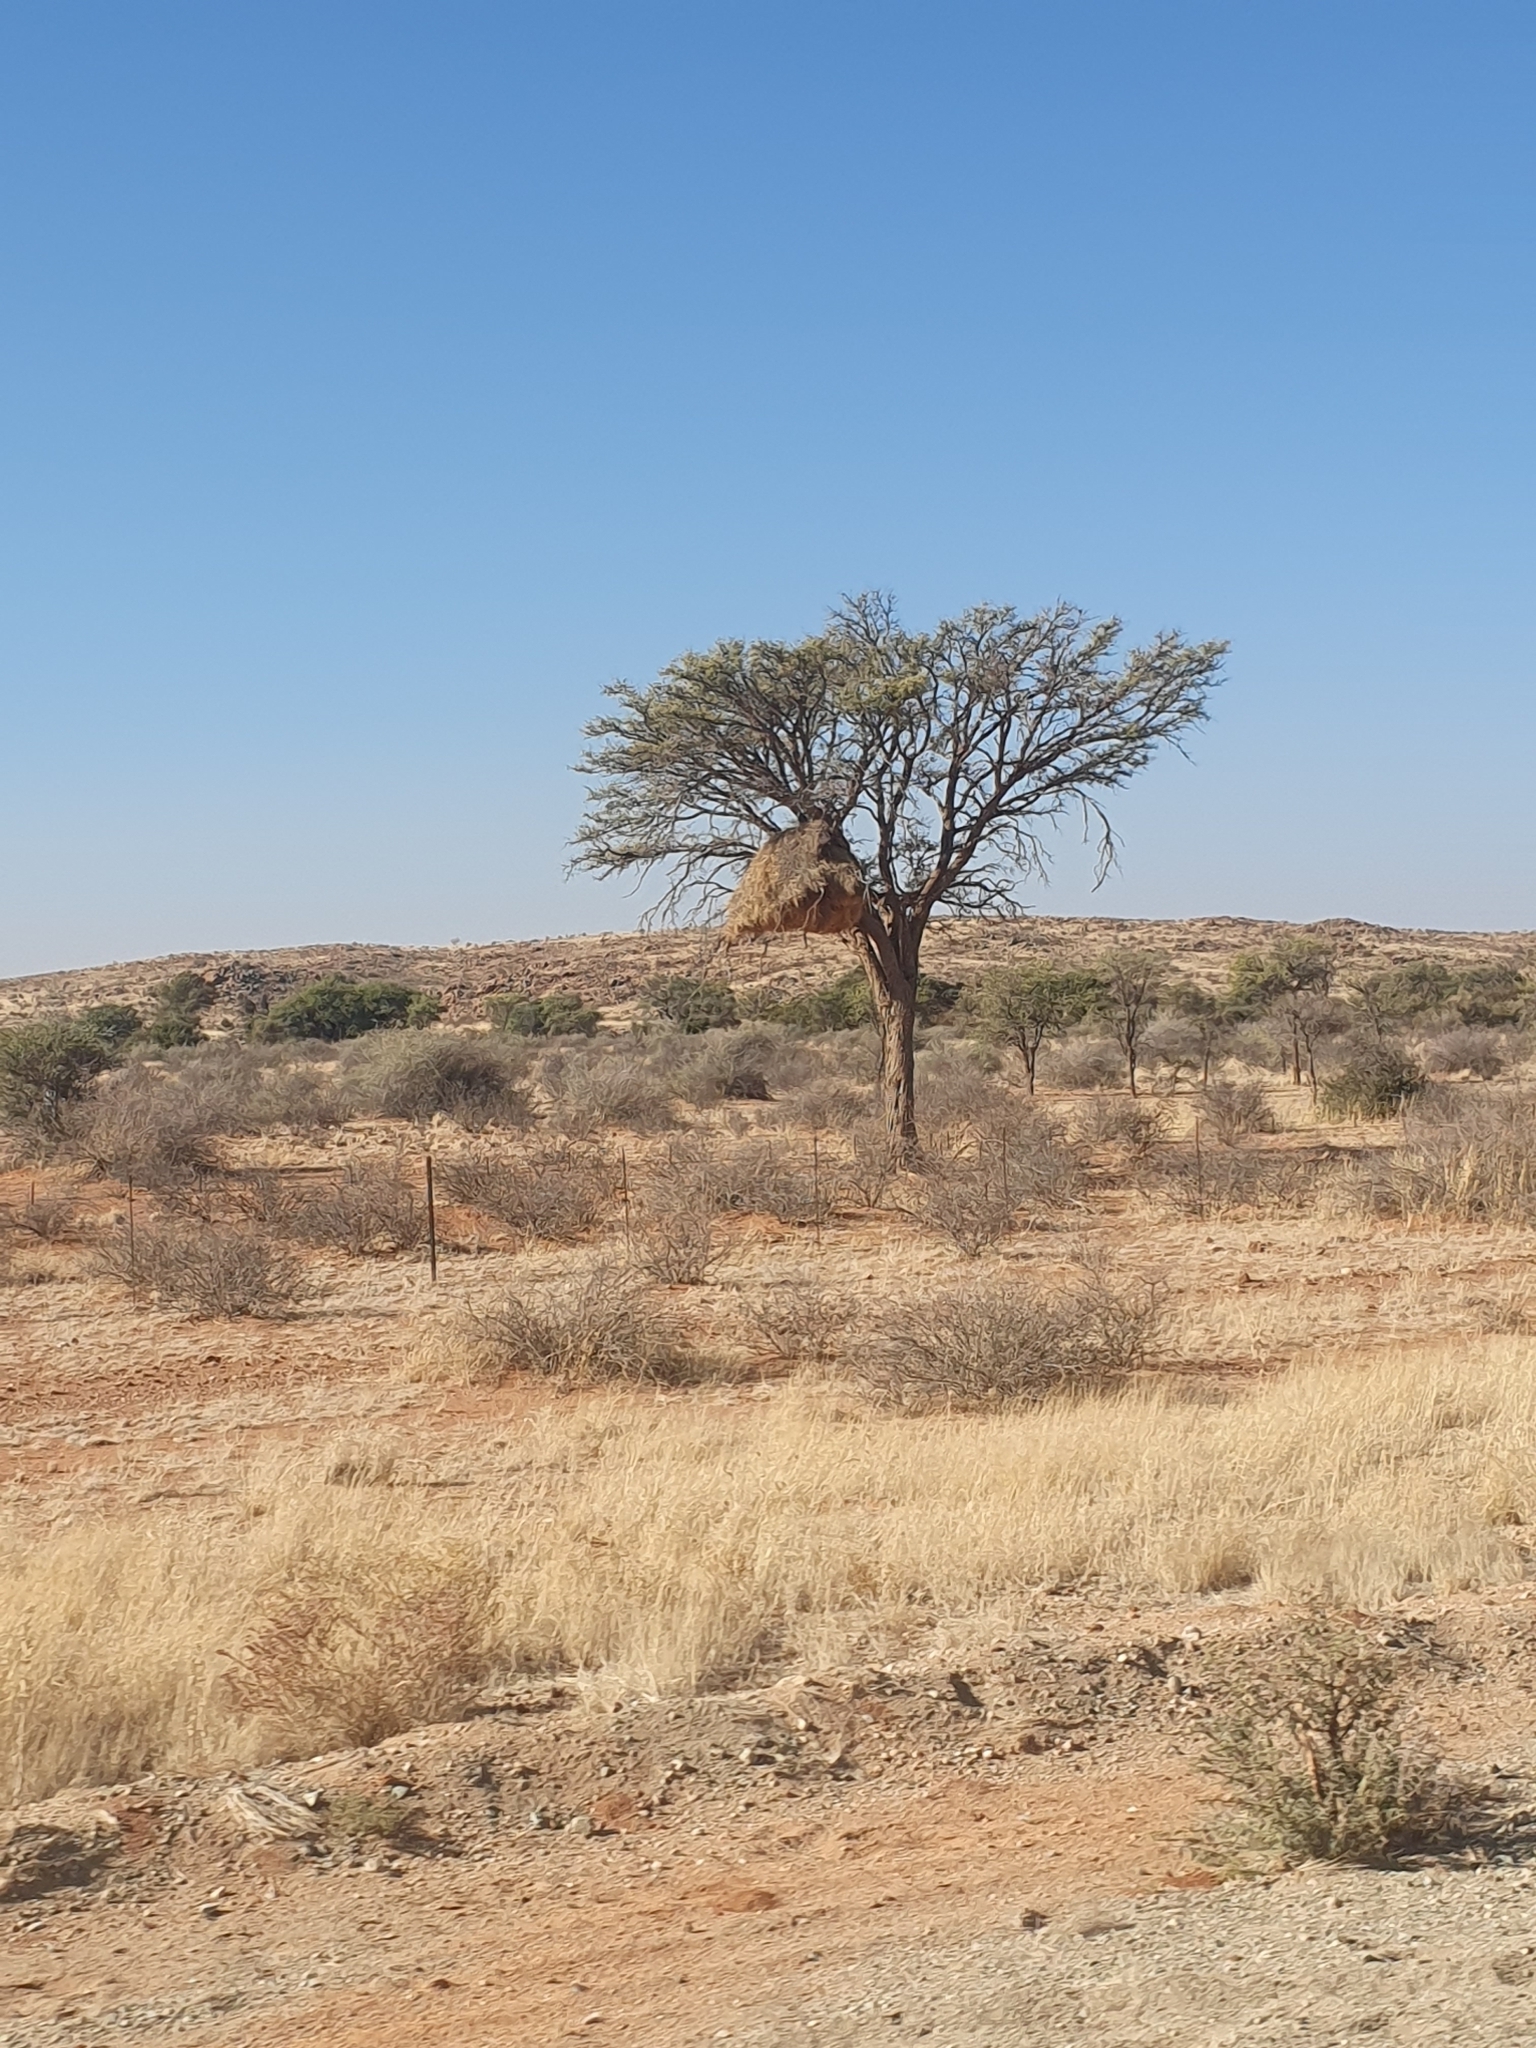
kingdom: Animalia
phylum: Chordata
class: Aves
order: Passeriformes
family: Passeridae
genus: Philetairus
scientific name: Philetairus socius
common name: Sociable weaver
